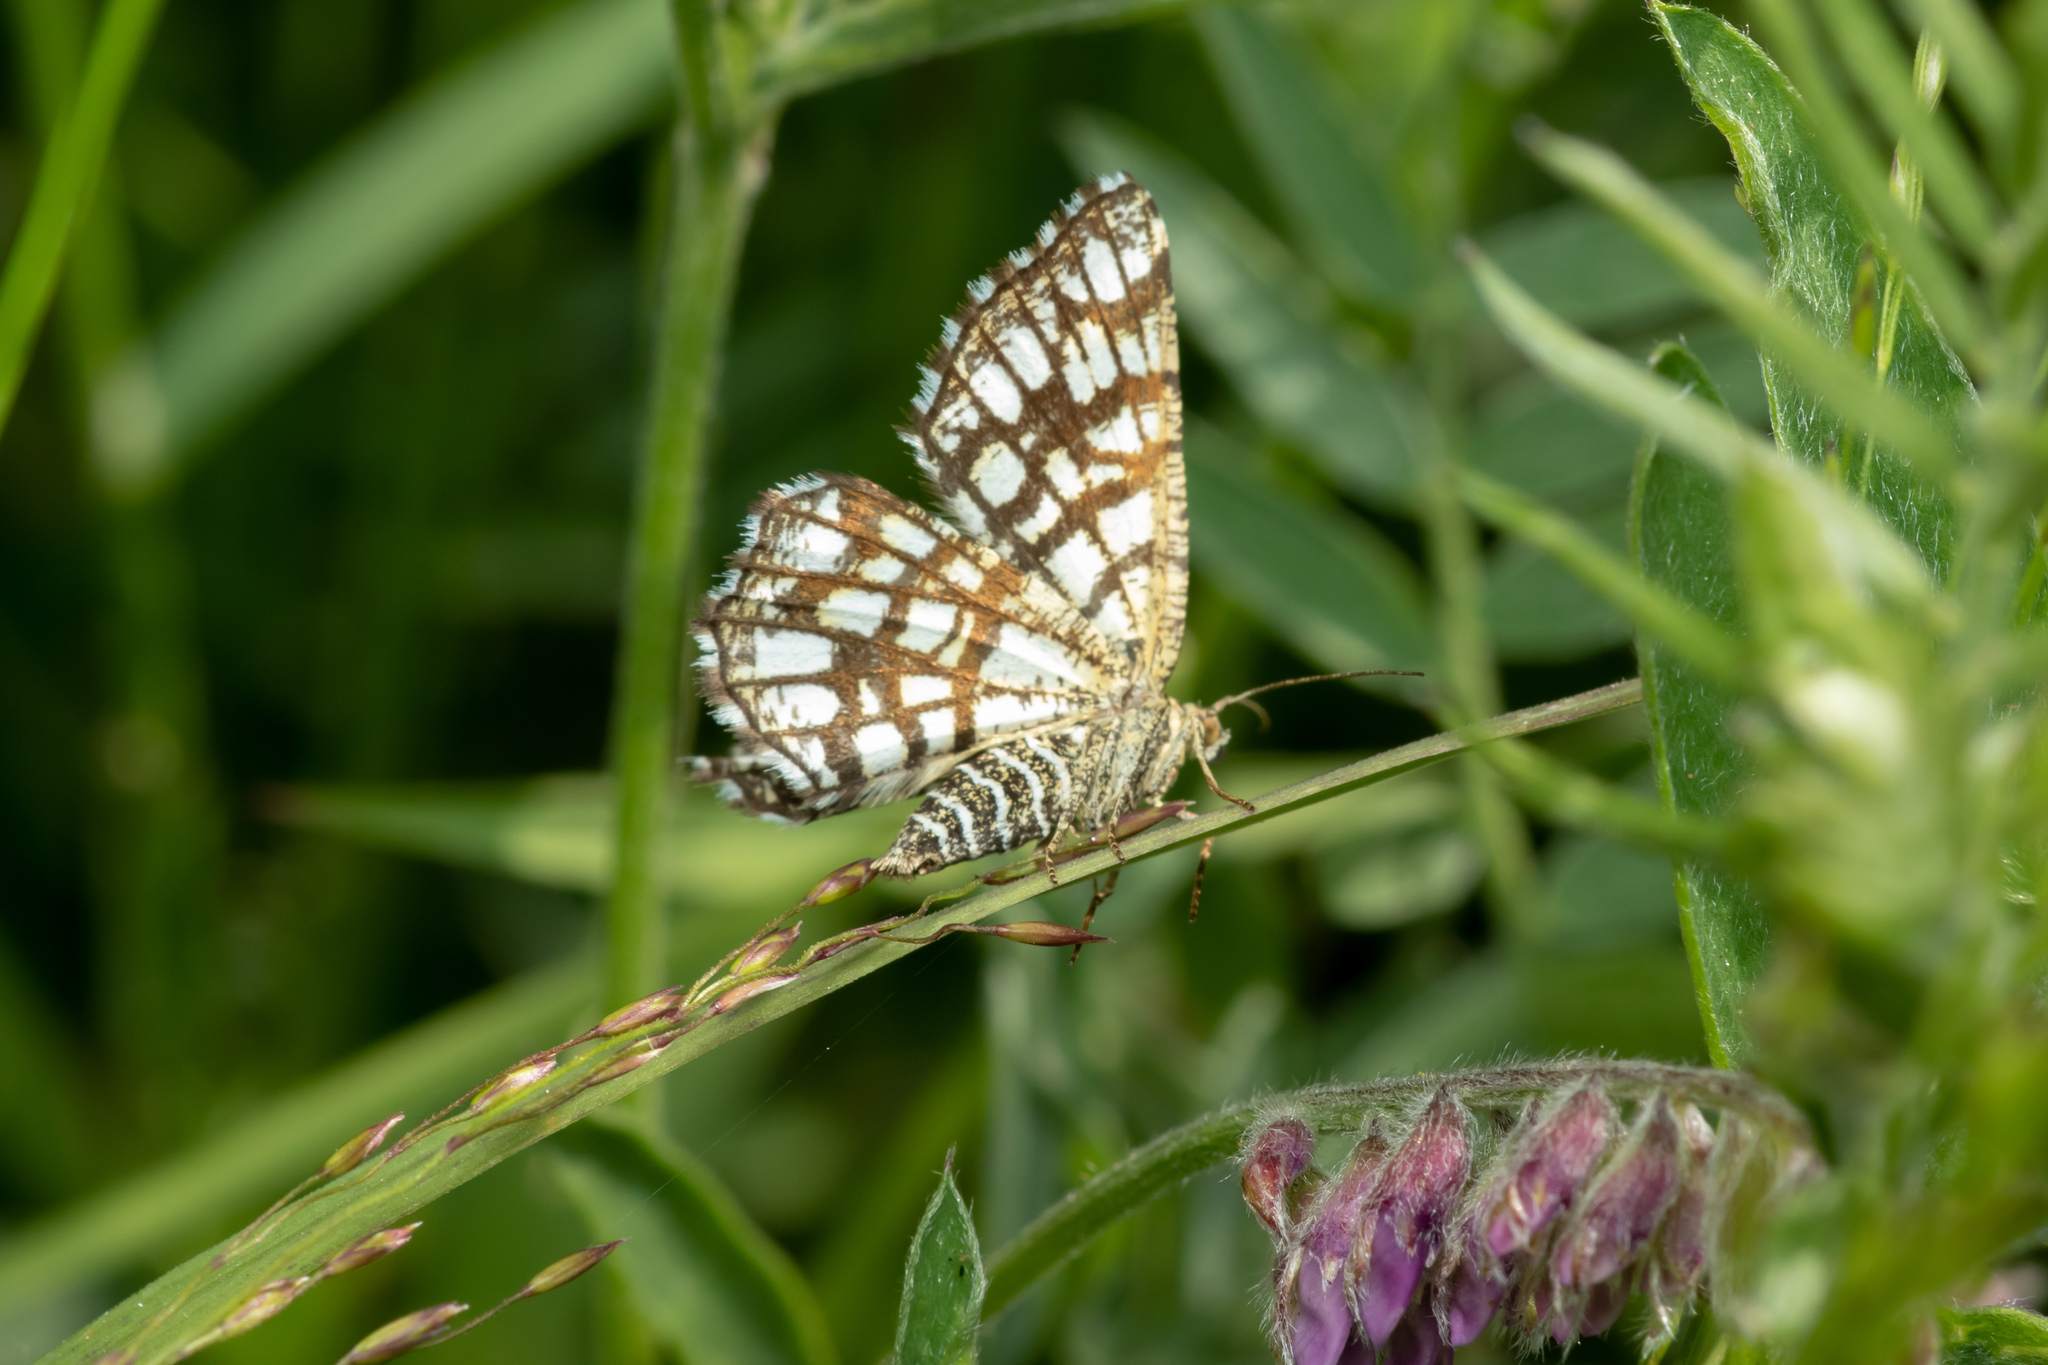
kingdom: Animalia
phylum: Arthropoda
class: Insecta
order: Lepidoptera
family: Geometridae
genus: Chiasmia
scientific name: Chiasmia clathrata
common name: Latticed heath
